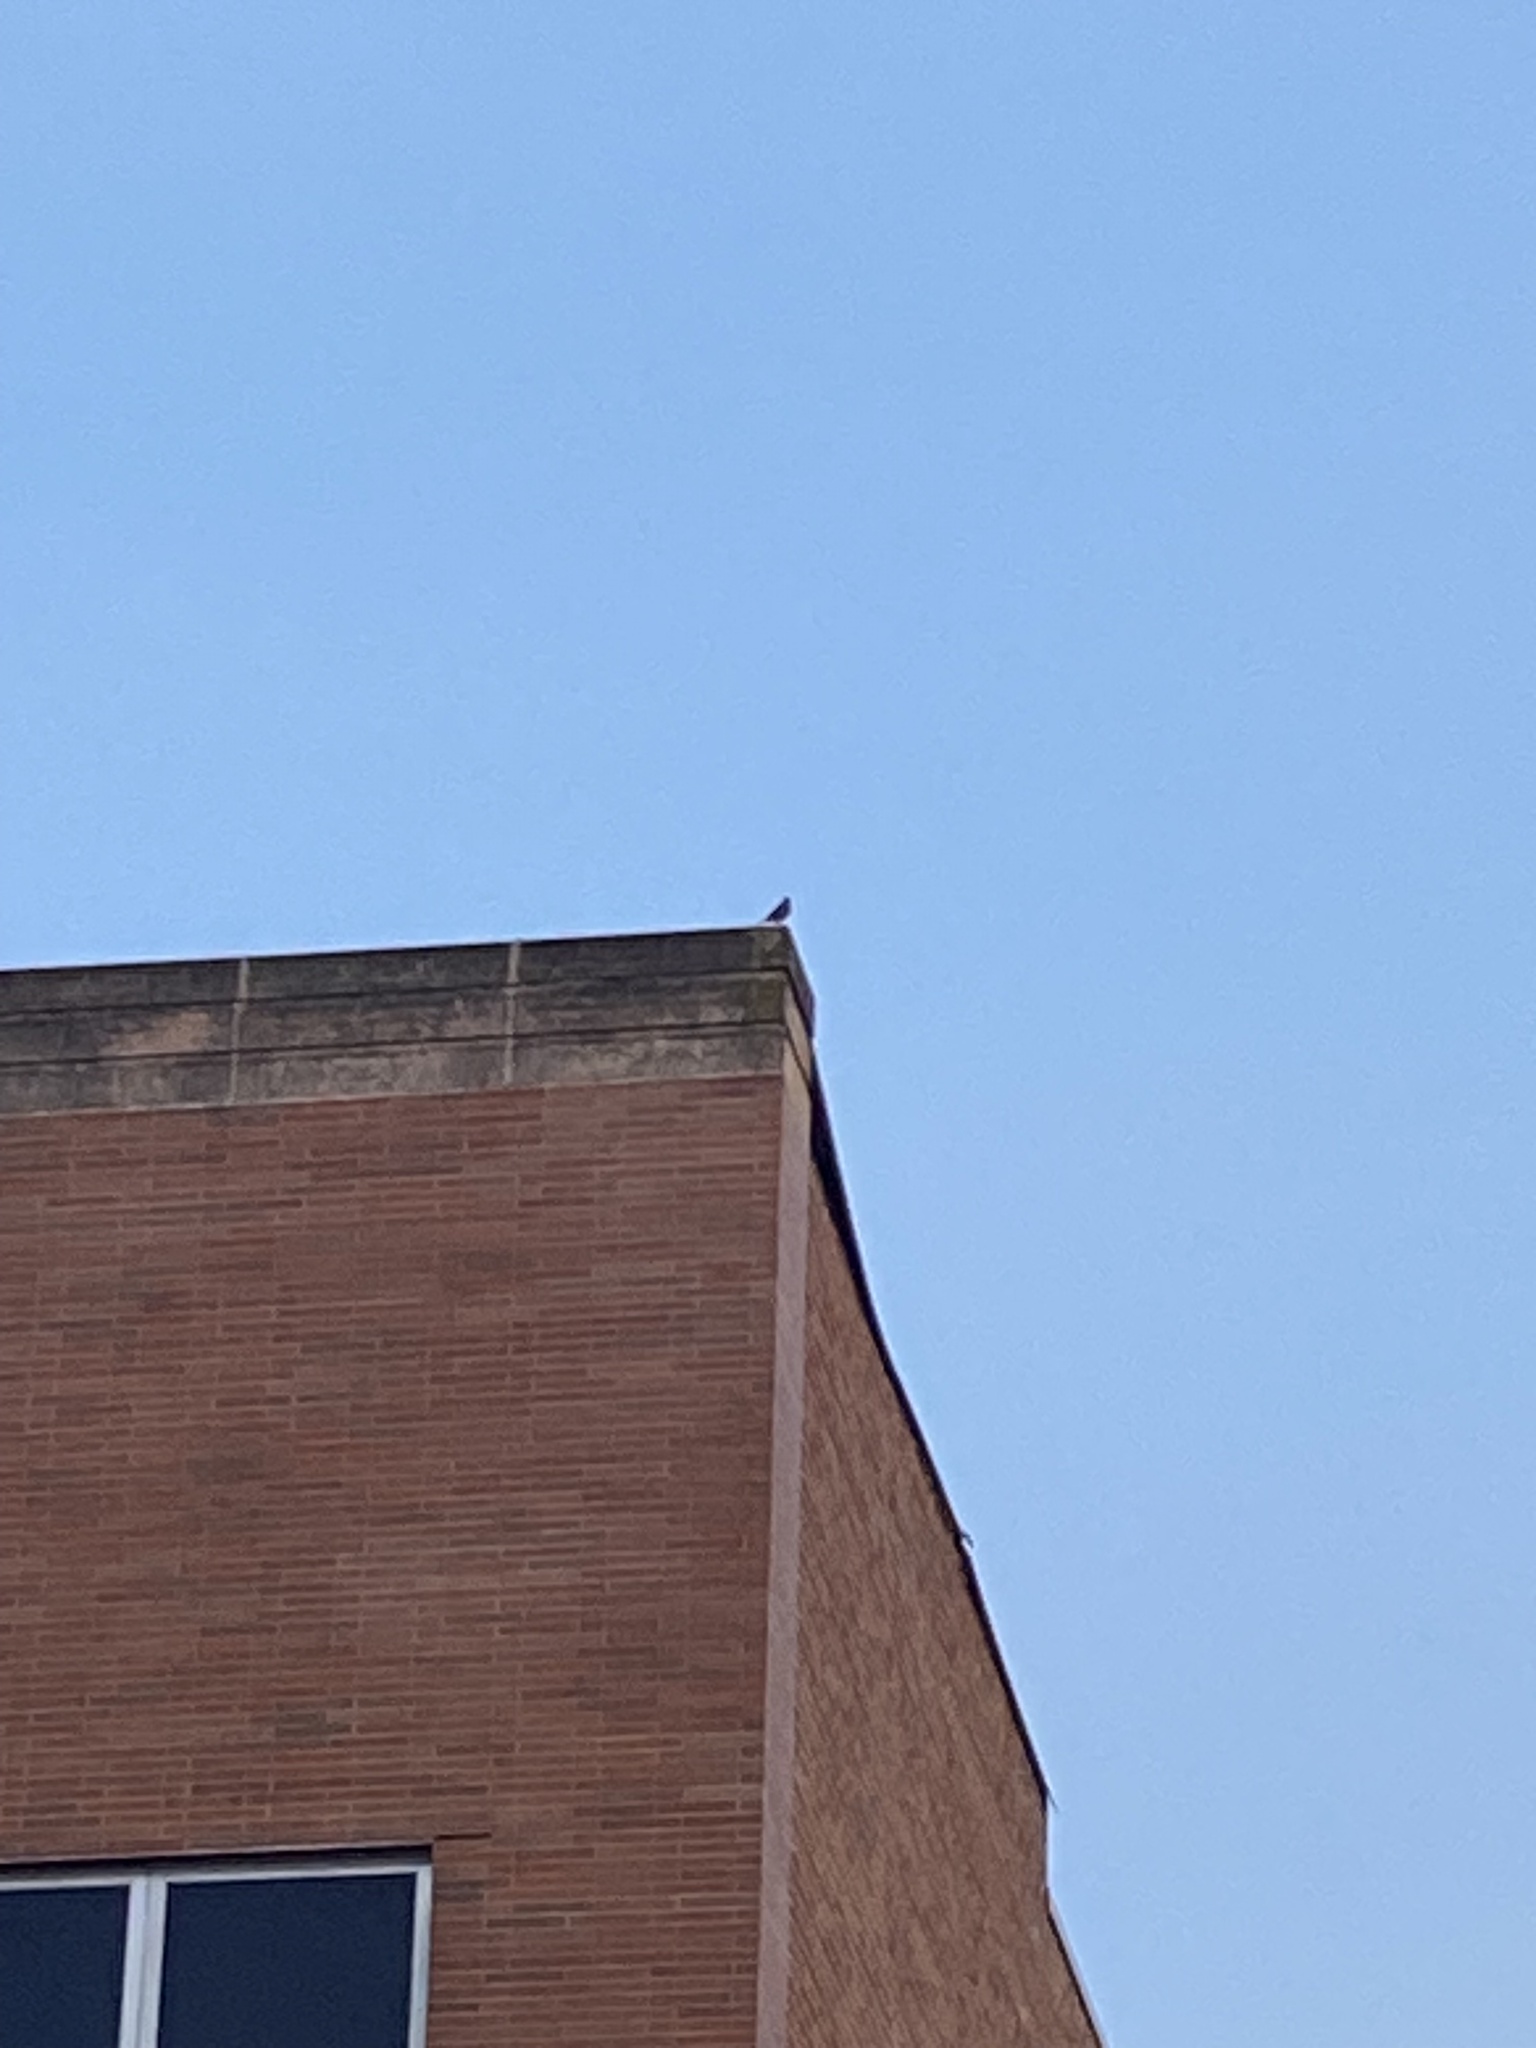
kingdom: Animalia
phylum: Chordata
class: Aves
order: Passeriformes
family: Turdidae
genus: Turdus
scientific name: Turdus migratorius
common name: American robin
